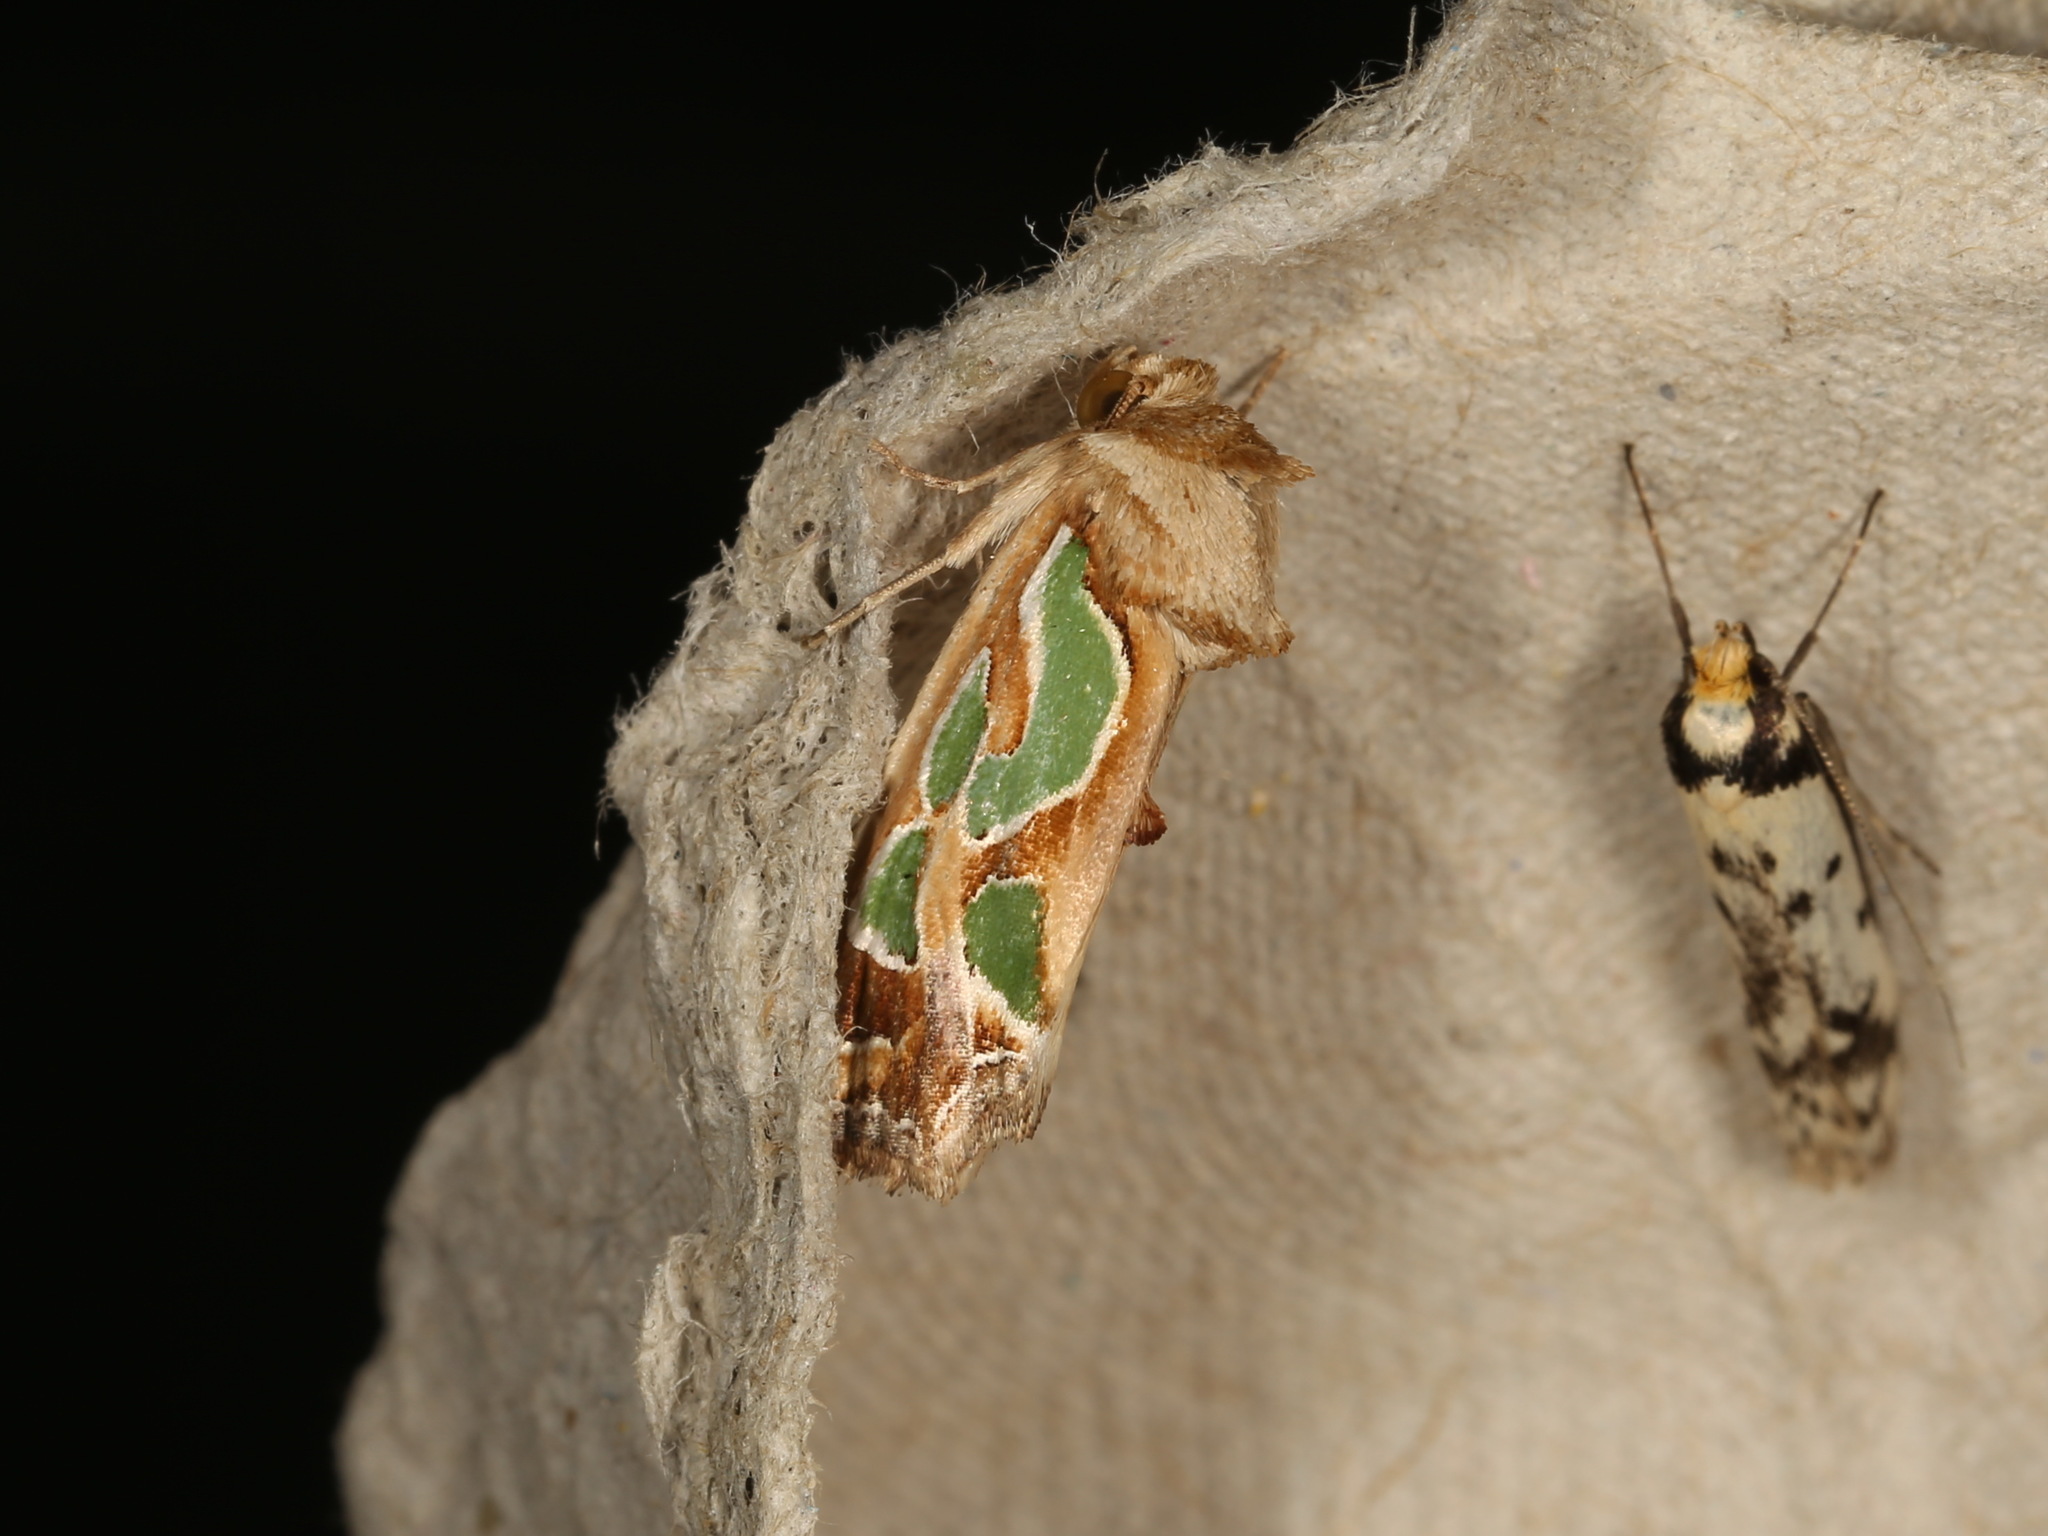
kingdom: Animalia
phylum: Arthropoda
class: Insecta
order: Lepidoptera
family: Noctuidae
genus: Cosmodes
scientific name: Cosmodes elegans
